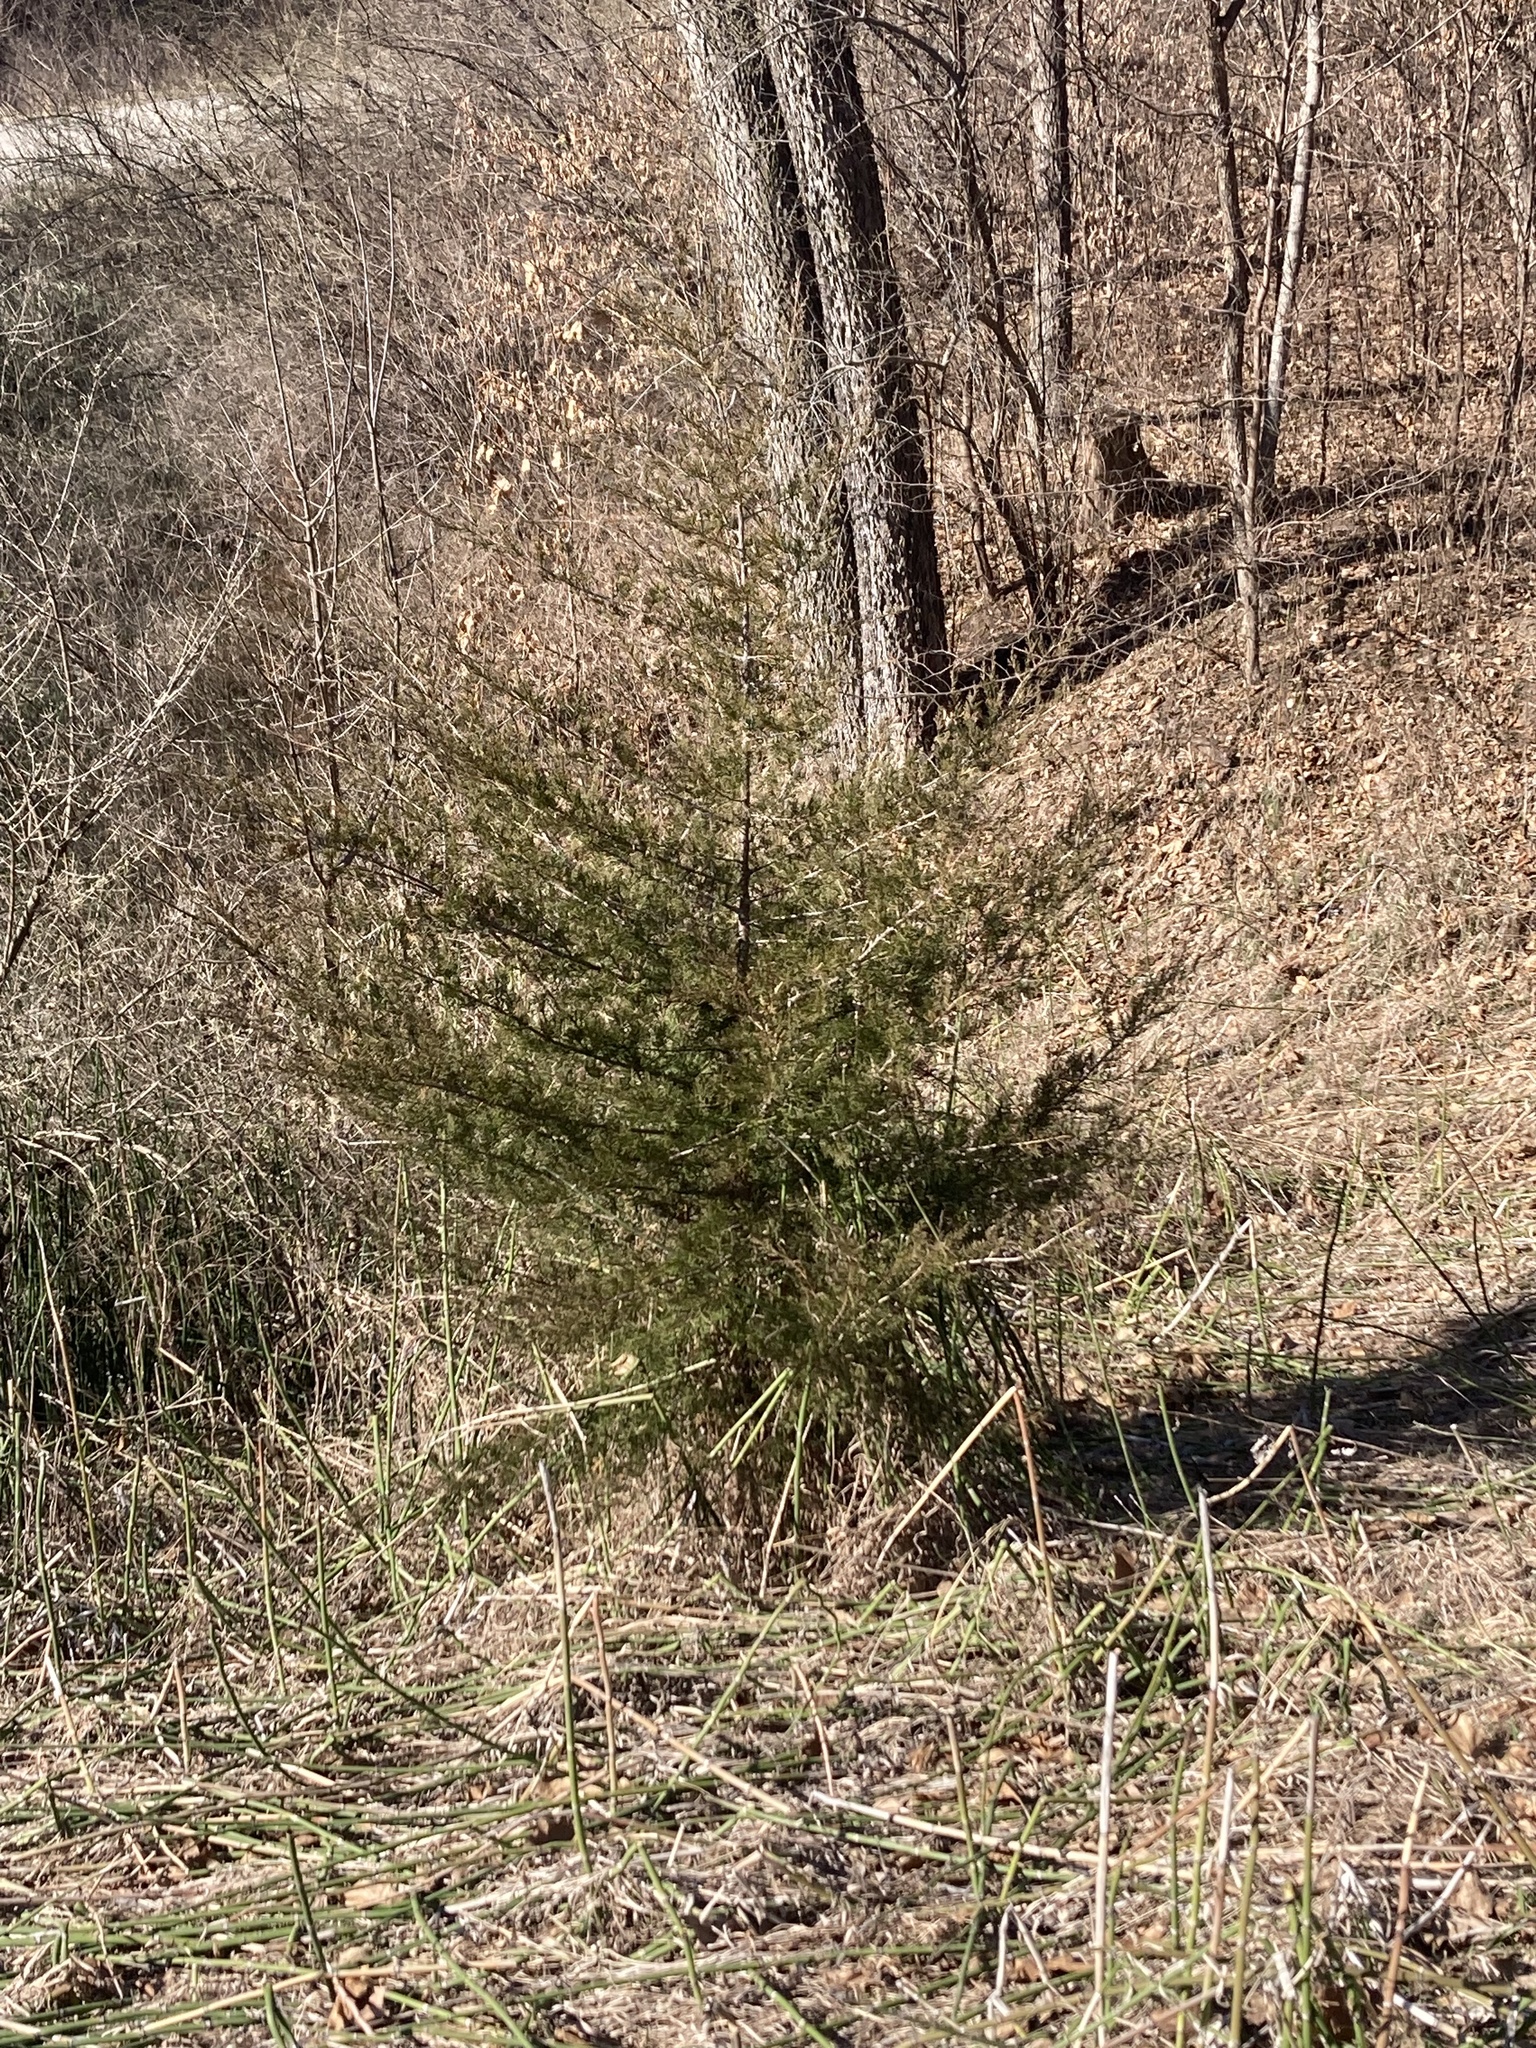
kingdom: Plantae
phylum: Tracheophyta
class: Pinopsida
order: Pinales
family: Cupressaceae
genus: Juniperus
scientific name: Juniperus virginiana
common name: Red juniper
